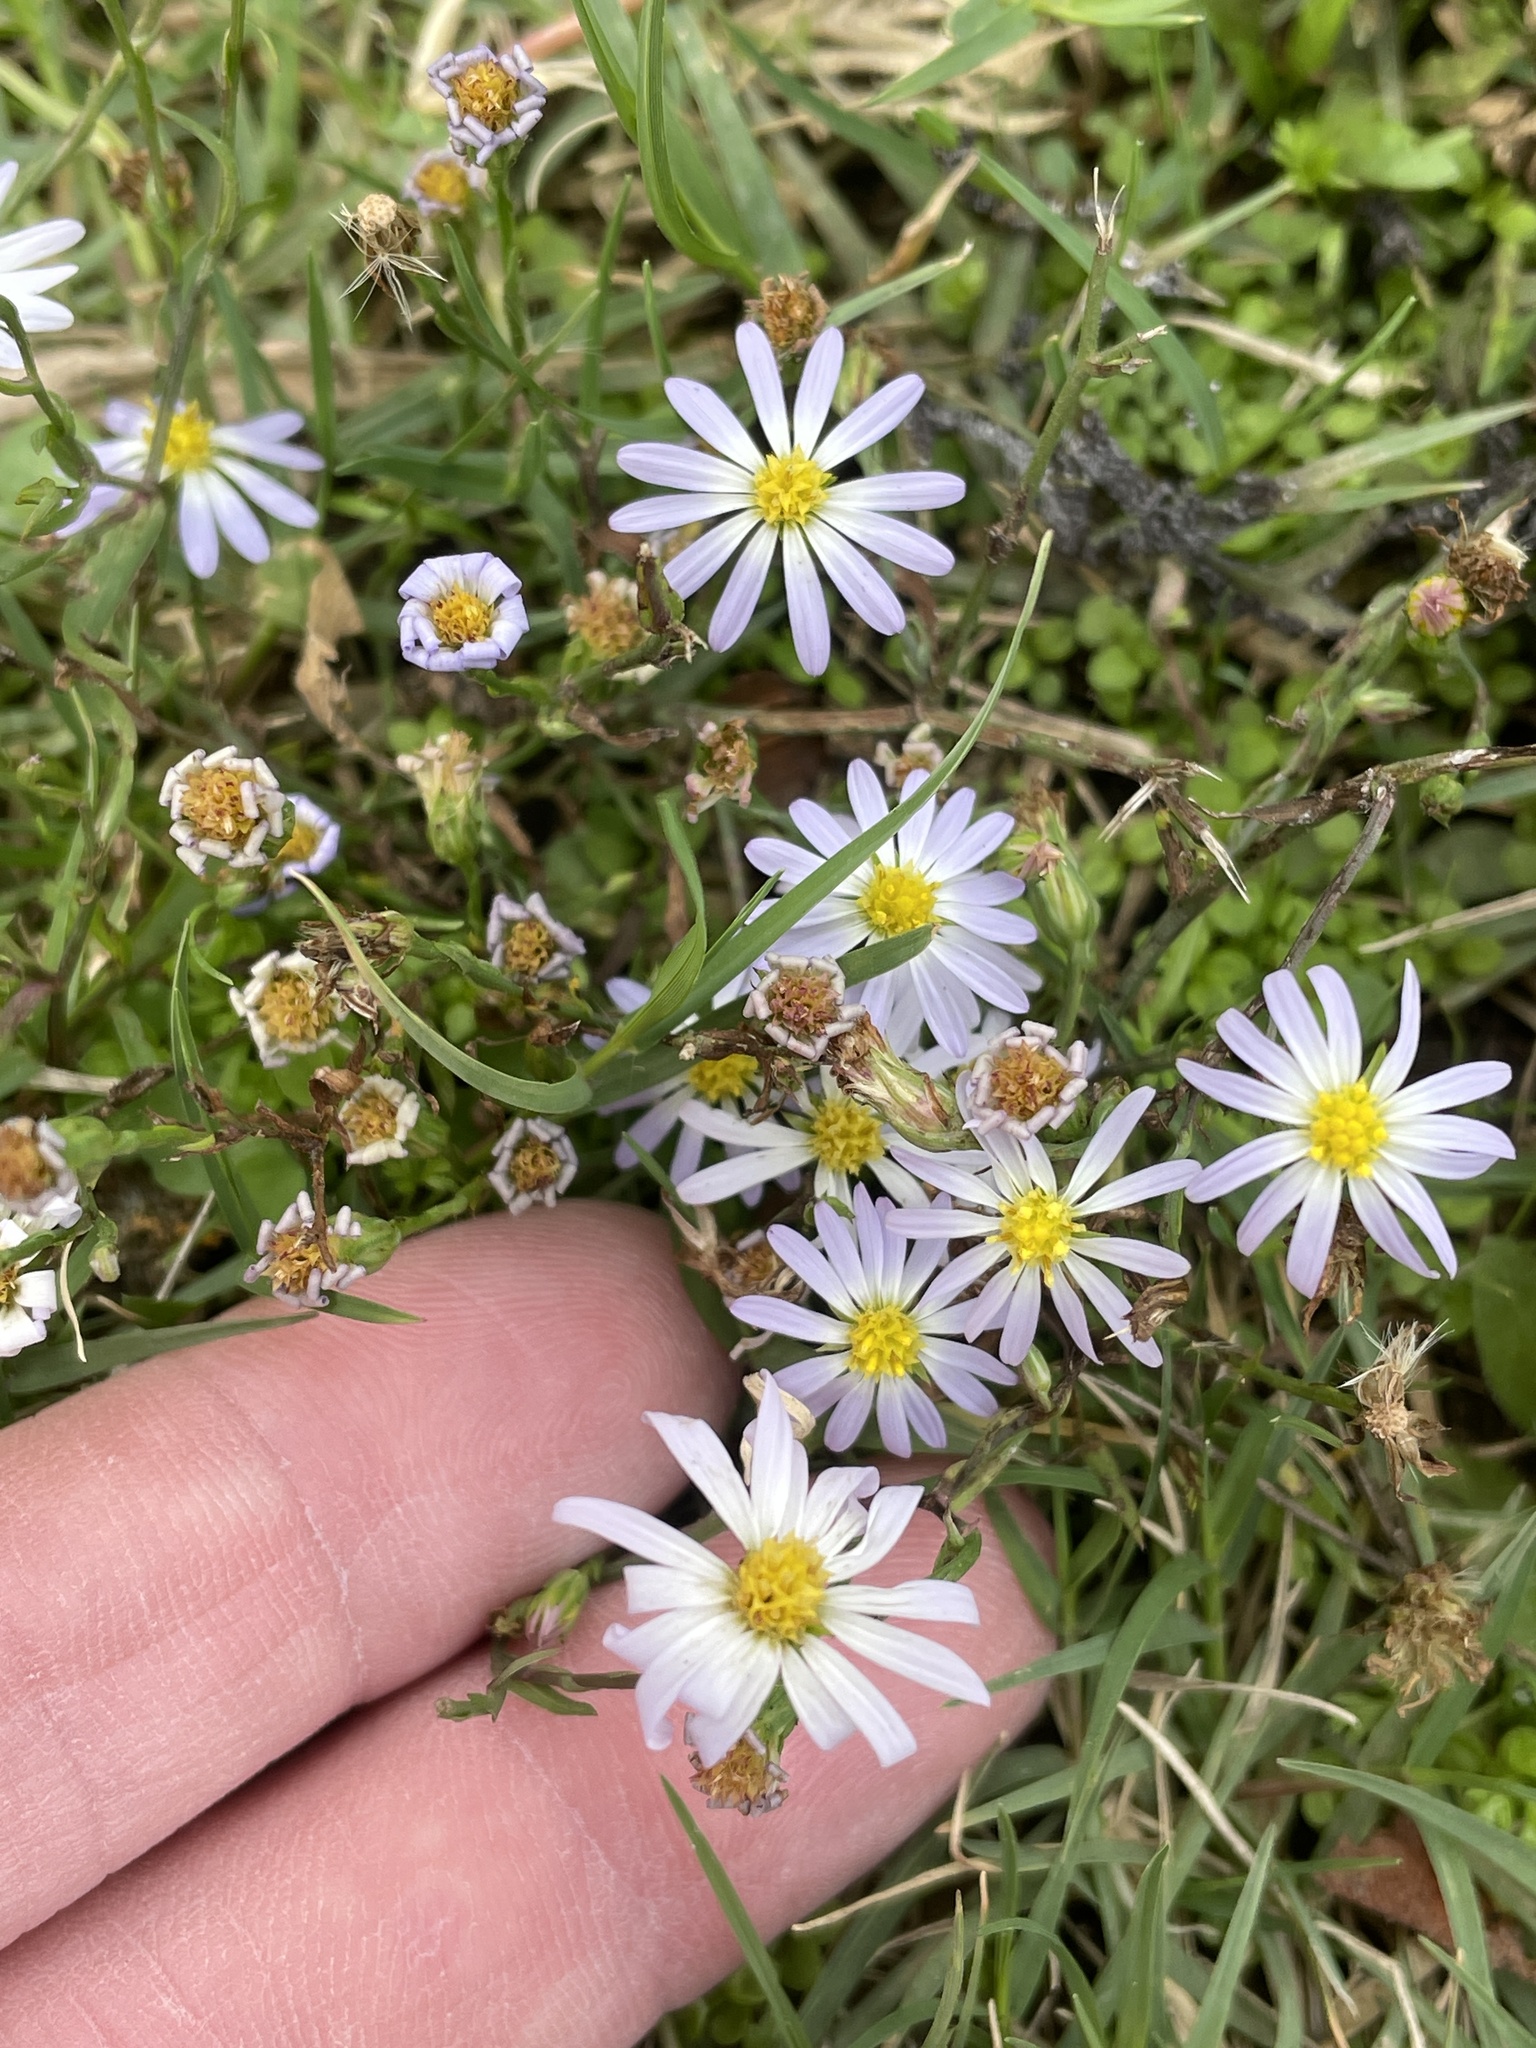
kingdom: Plantae
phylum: Tracheophyta
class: Magnoliopsida
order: Asterales
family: Asteraceae
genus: Symphyotrichum
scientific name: Symphyotrichum divaricatum
